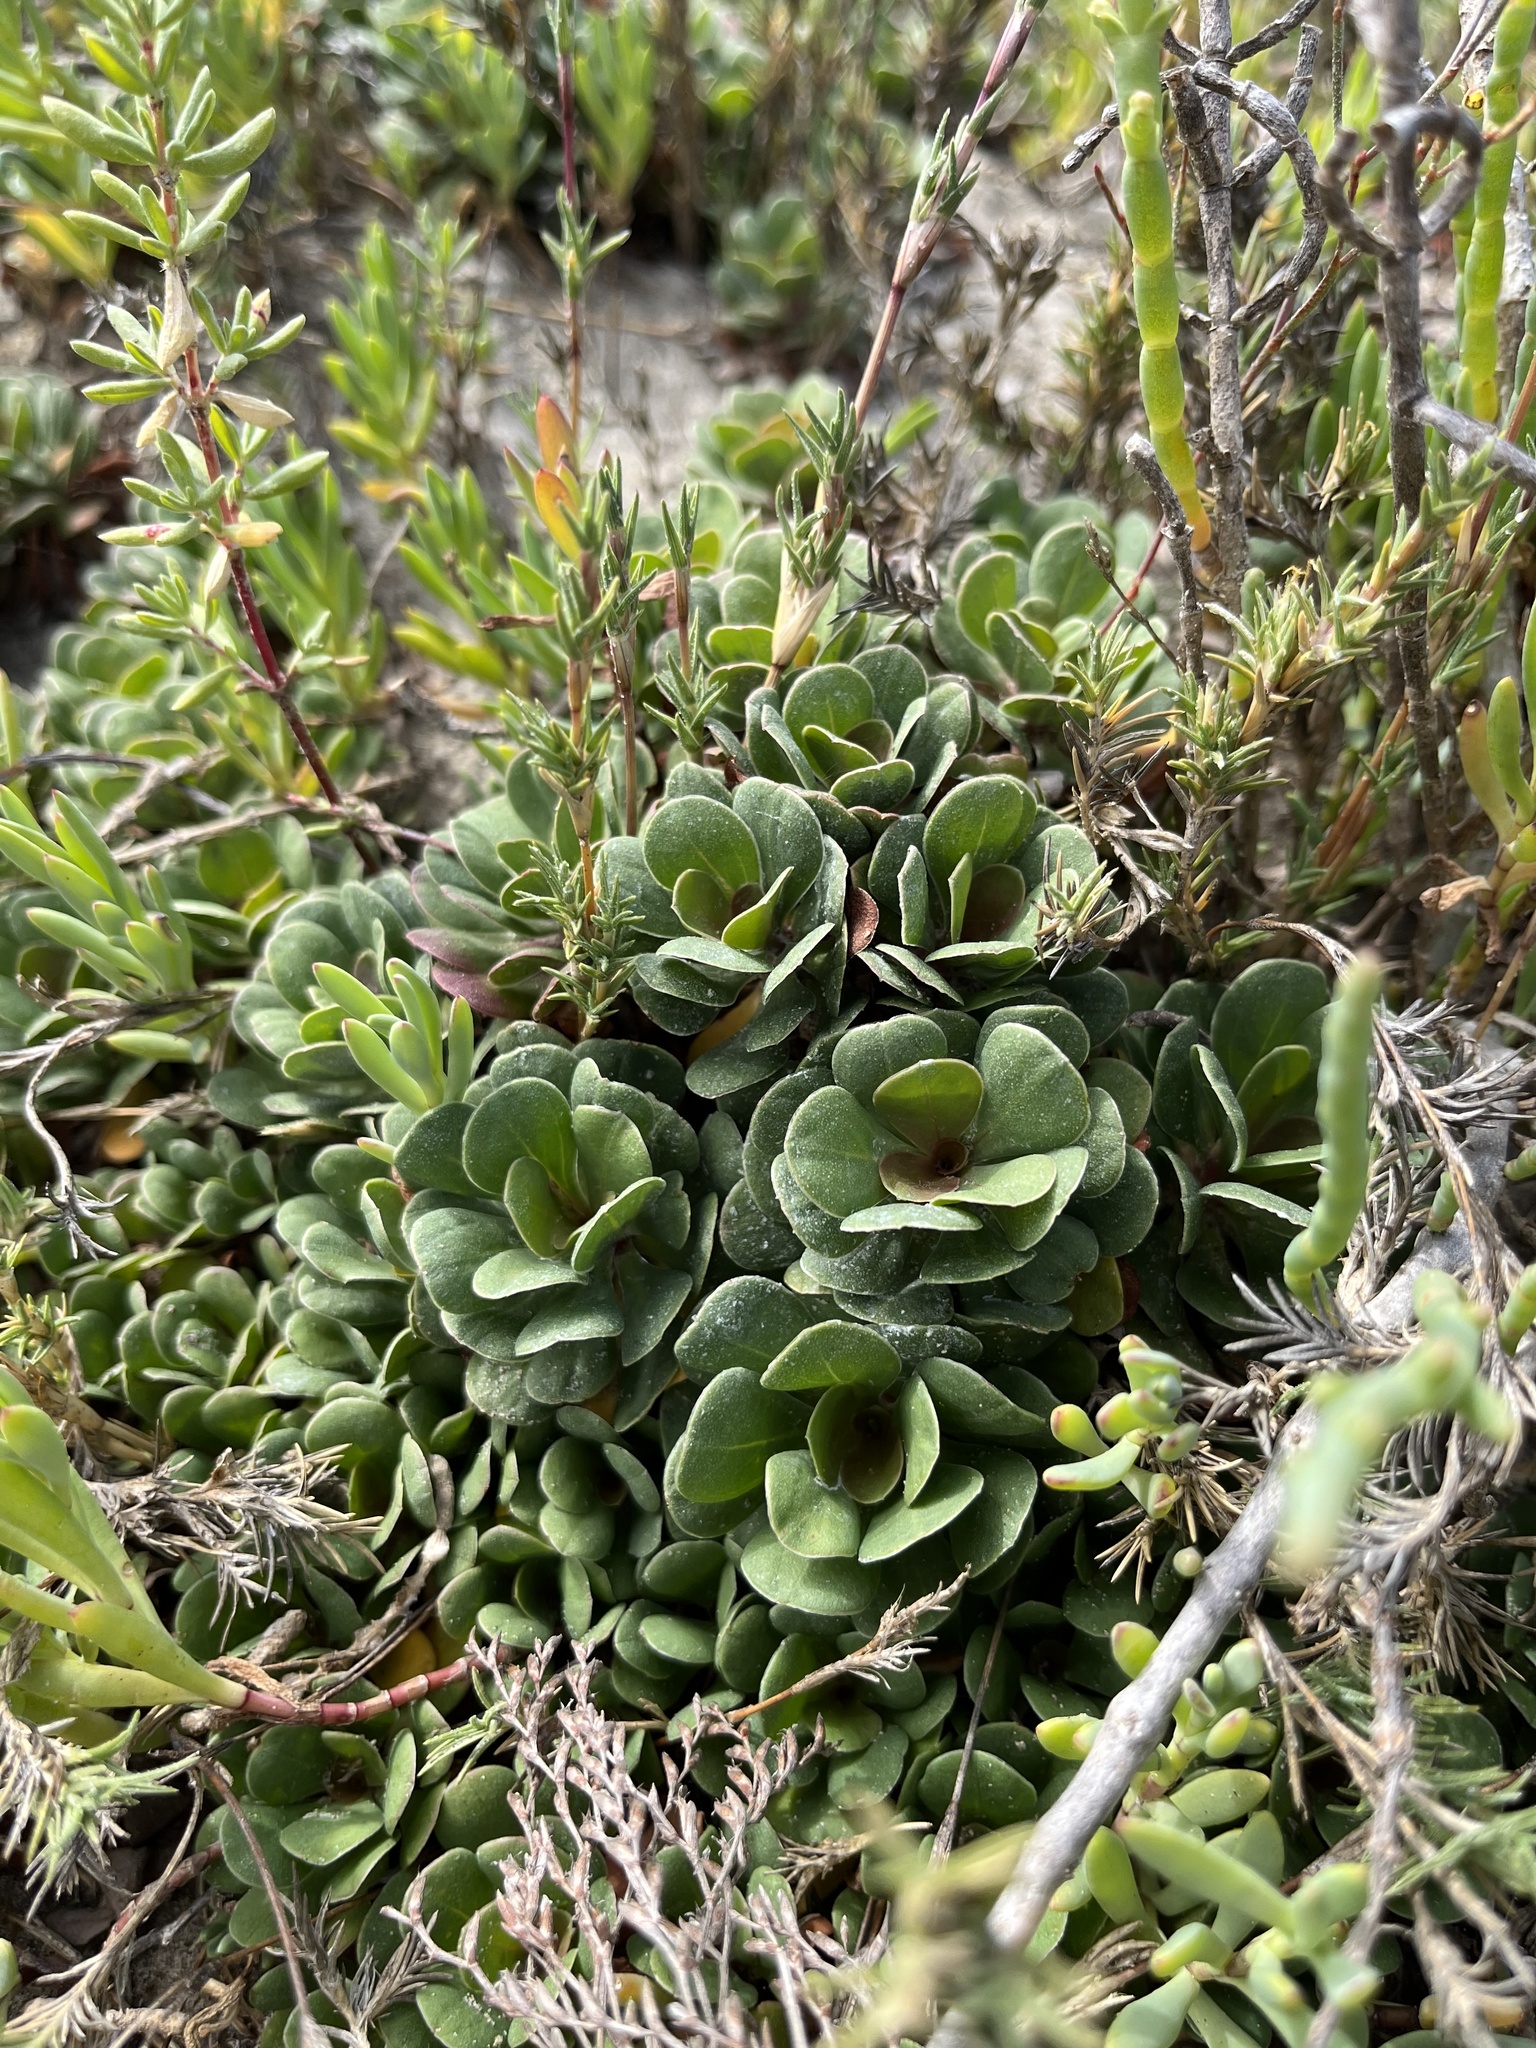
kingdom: Plantae
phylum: Tracheophyta
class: Magnoliopsida
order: Caryophyllales
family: Plumbaginaceae
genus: Limonium
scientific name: Limonium duriusculum
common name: European sea lavendar
